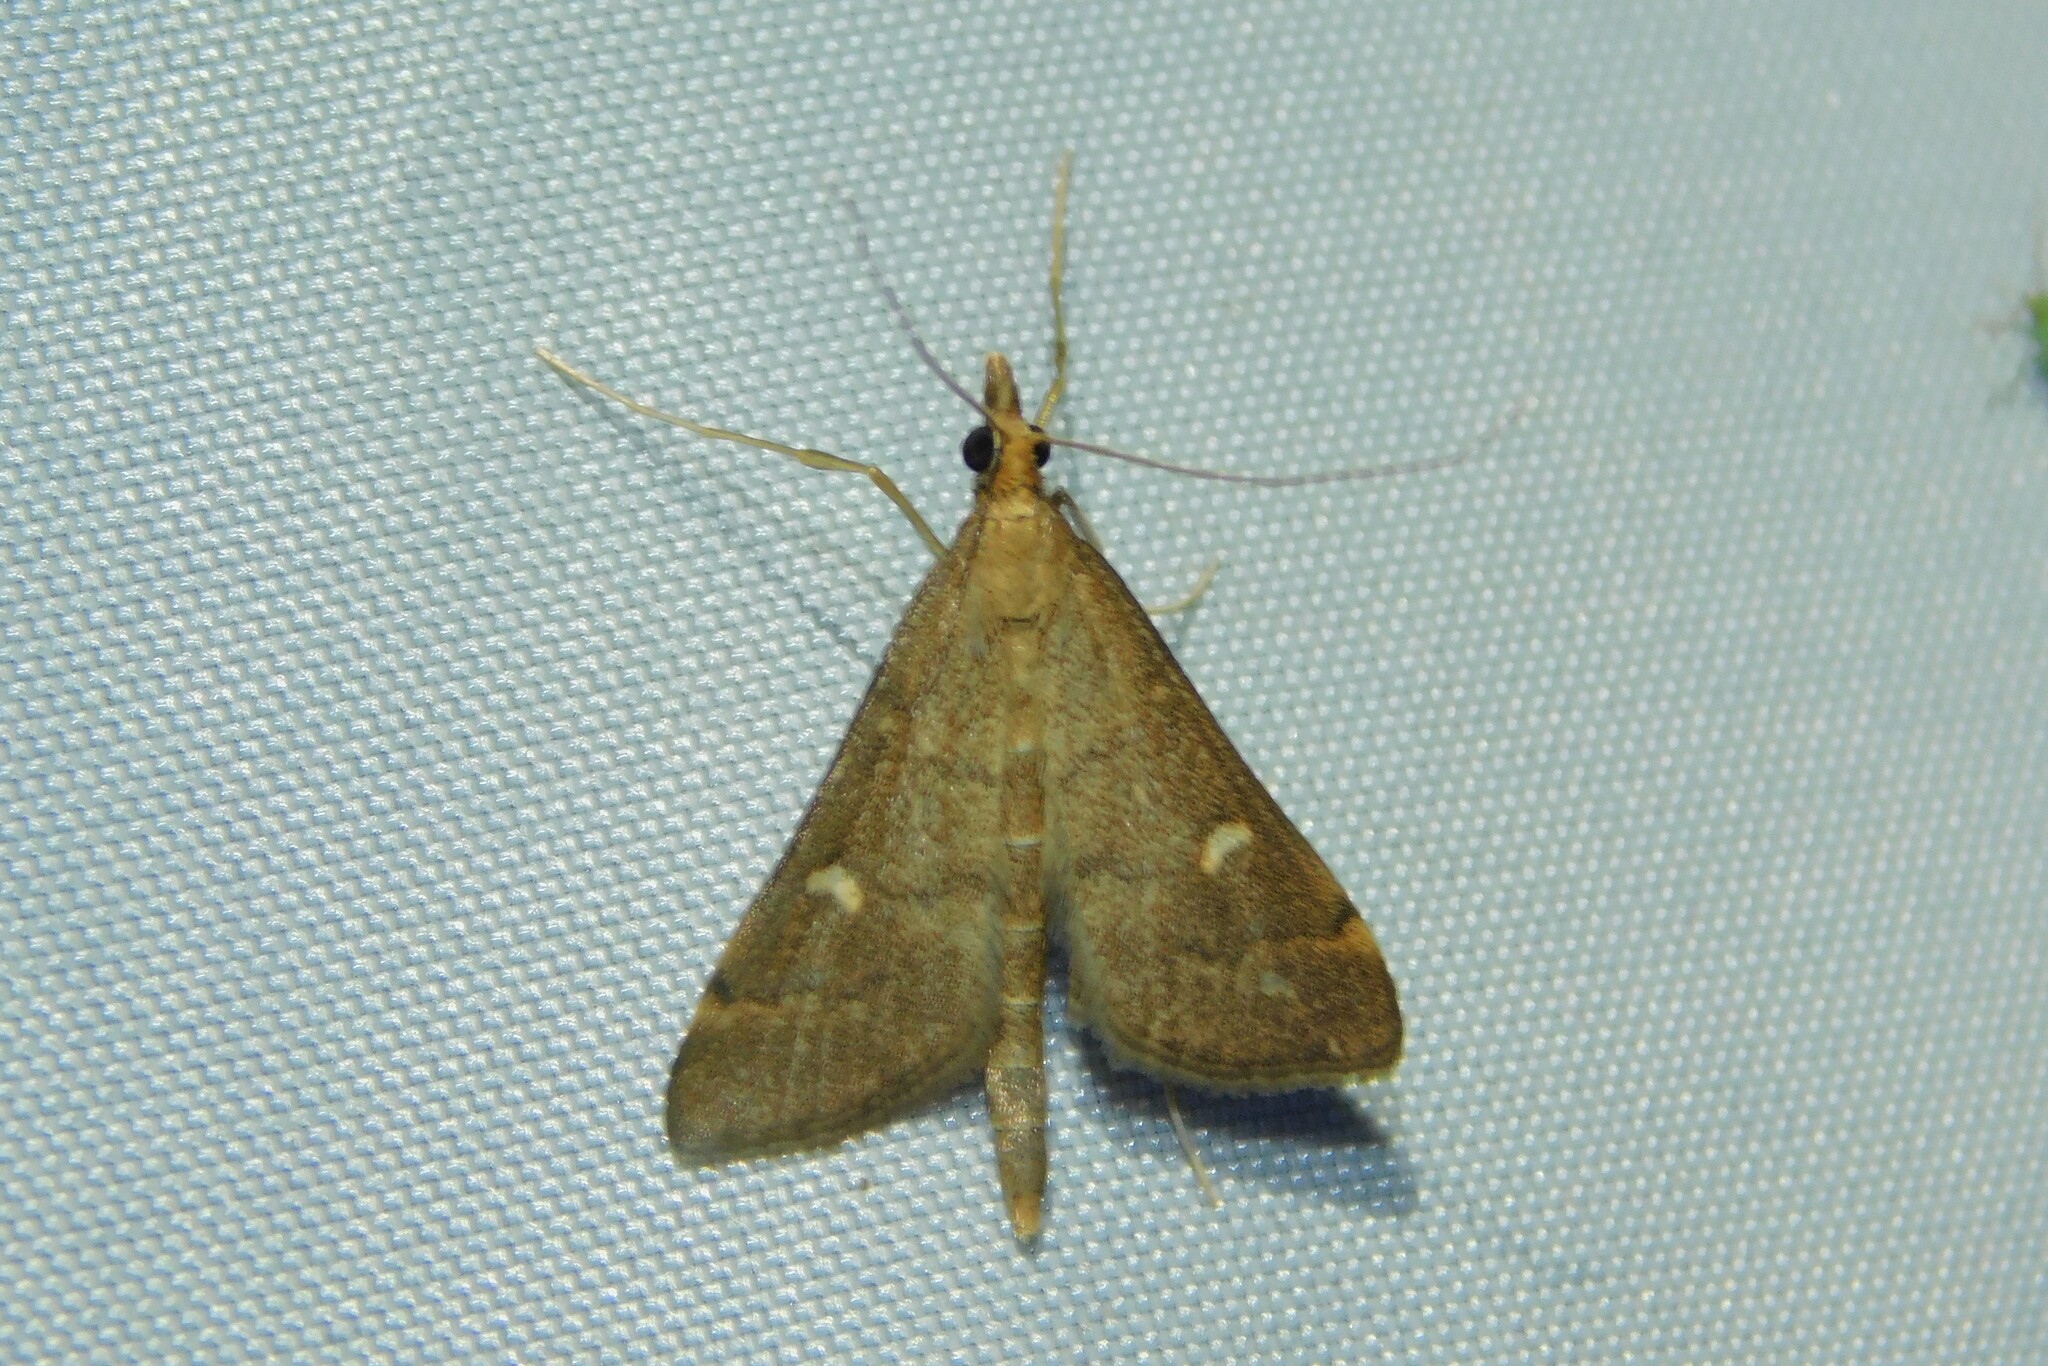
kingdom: Animalia
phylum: Arthropoda
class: Insecta
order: Lepidoptera
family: Crambidae
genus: Stenia
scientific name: Stenia Dolicharthria punctalis
